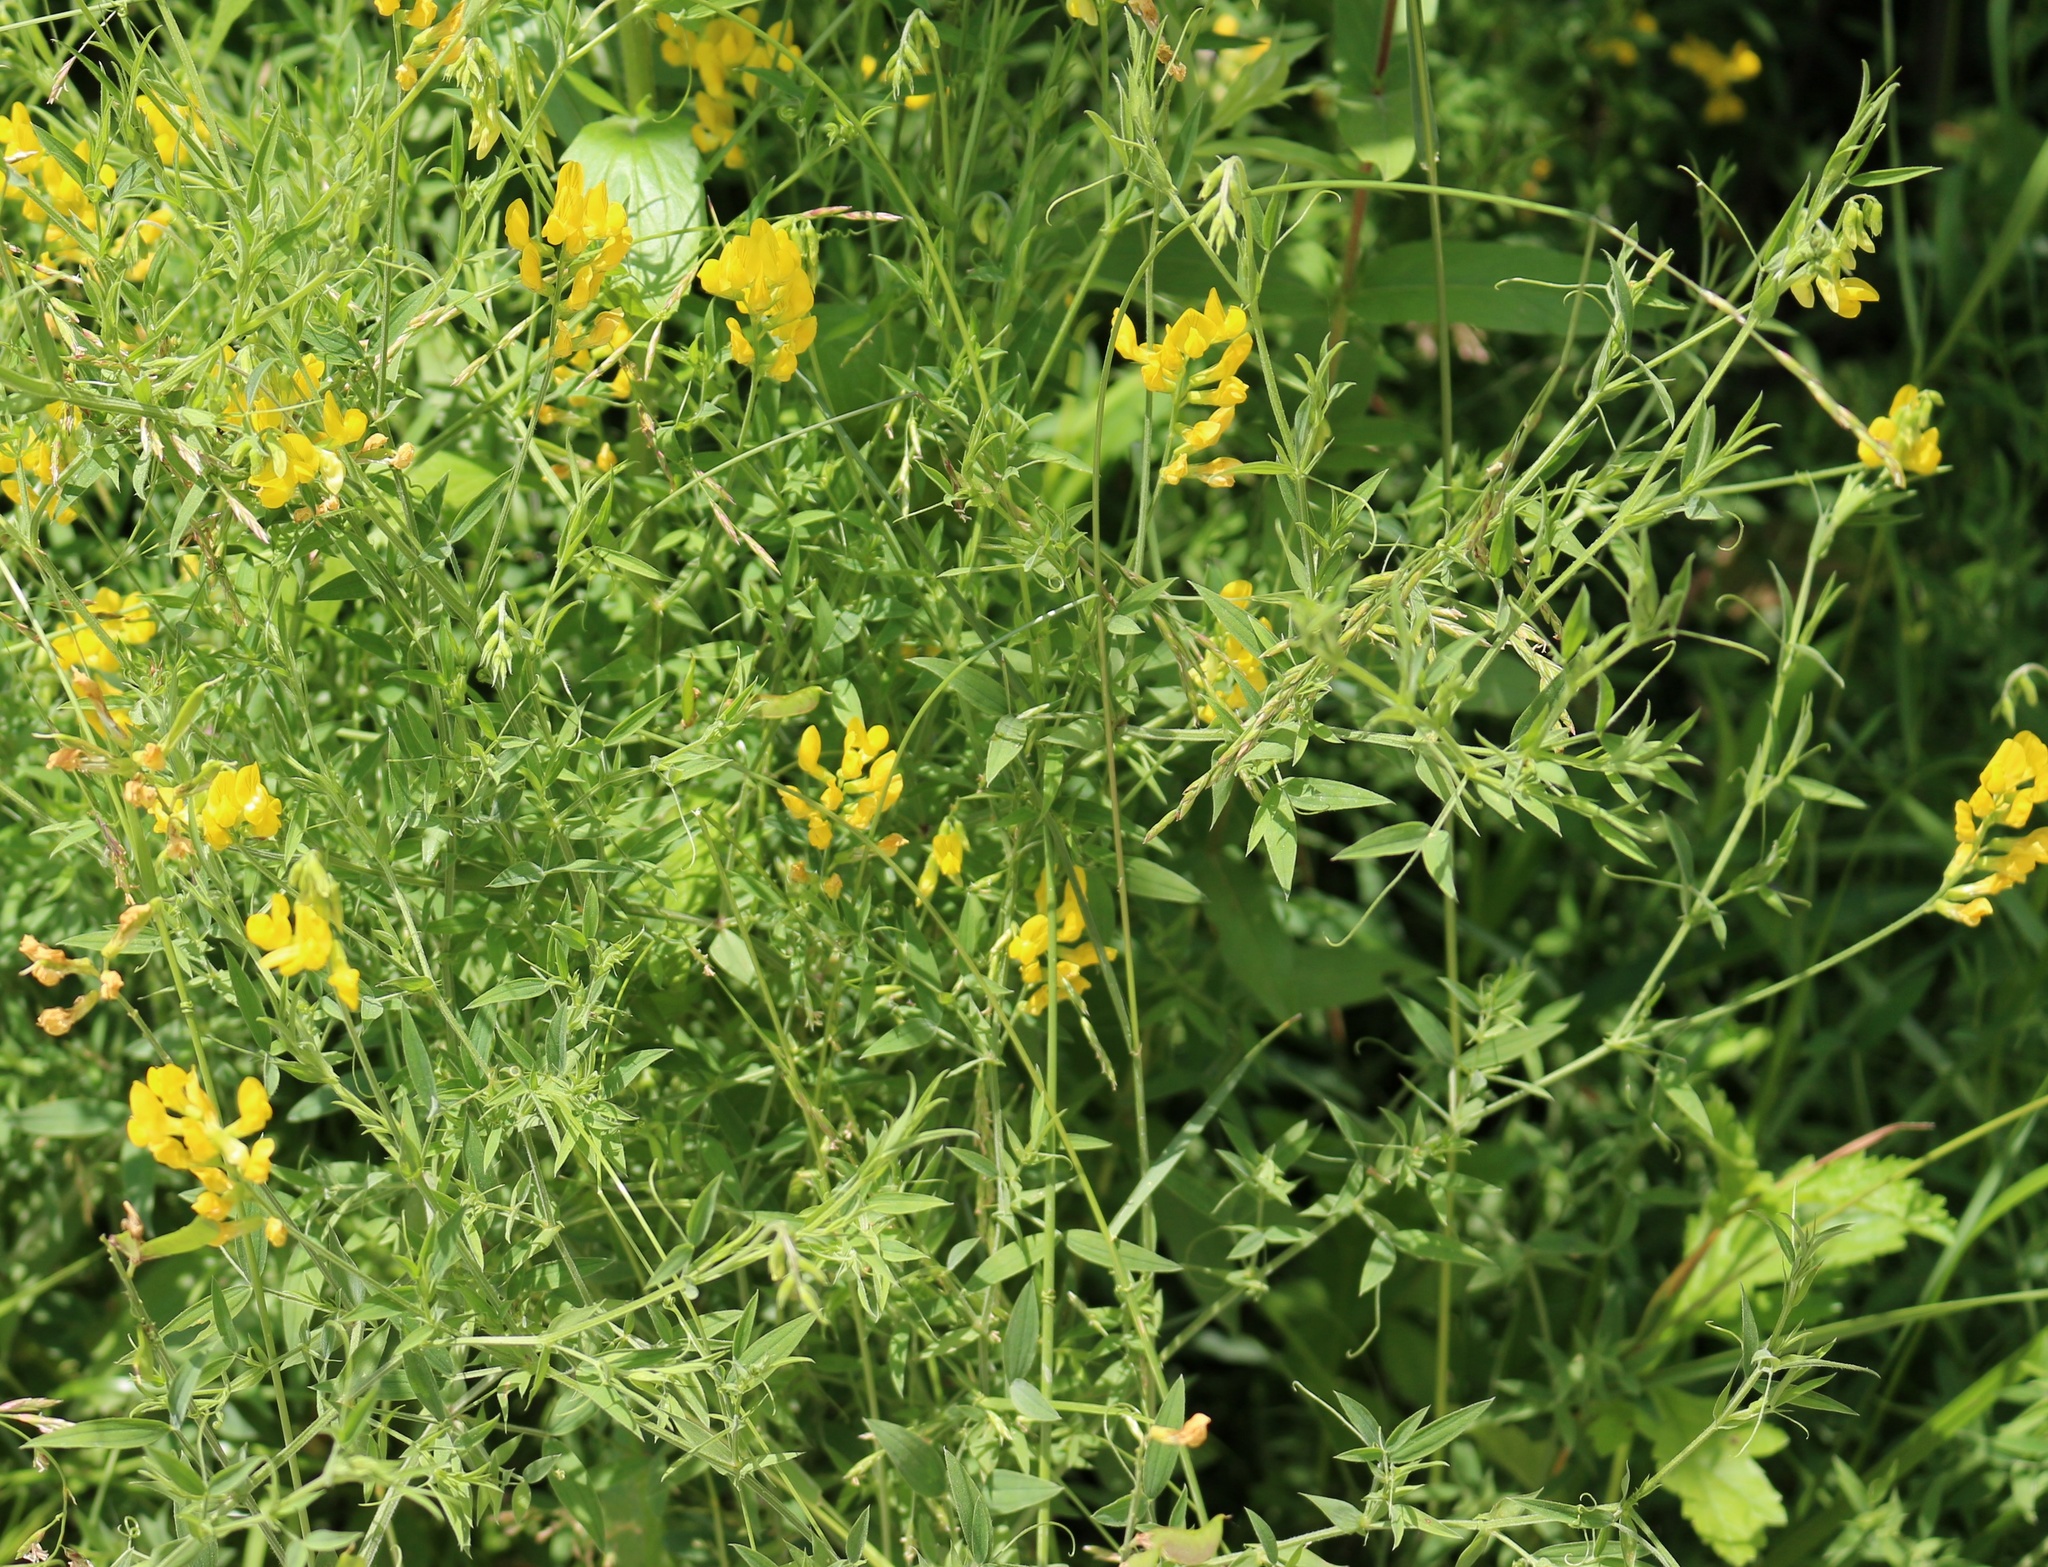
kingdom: Plantae
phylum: Tracheophyta
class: Magnoliopsida
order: Fabales
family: Fabaceae
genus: Lathyrus
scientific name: Lathyrus pratensis
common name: Meadow vetchling
